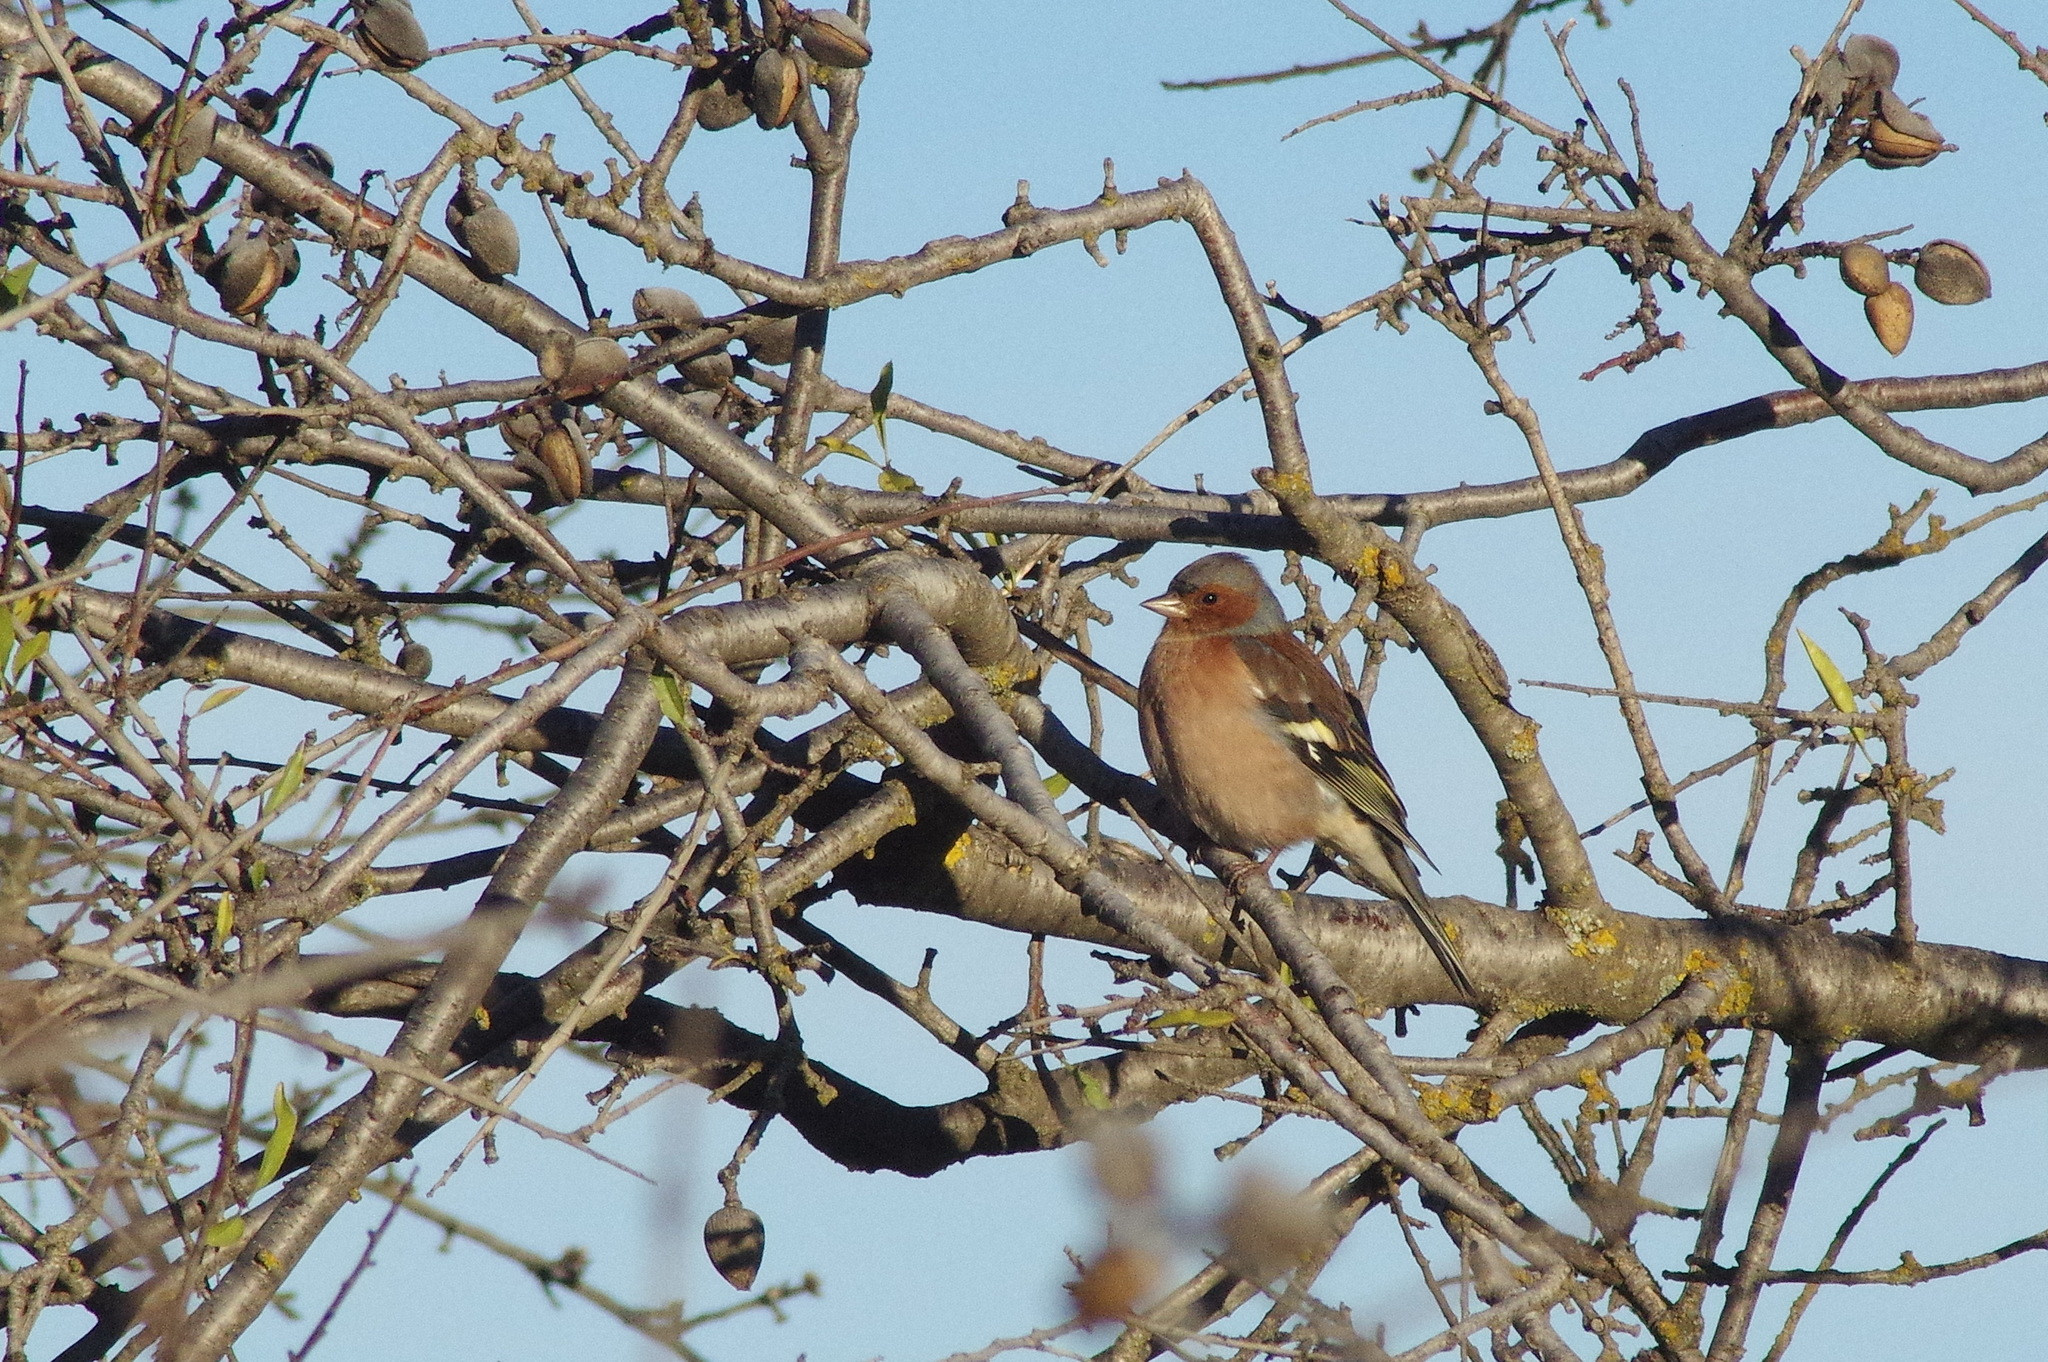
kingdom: Animalia
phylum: Chordata
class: Aves
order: Passeriformes
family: Fringillidae
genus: Fringilla
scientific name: Fringilla coelebs
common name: Common chaffinch
